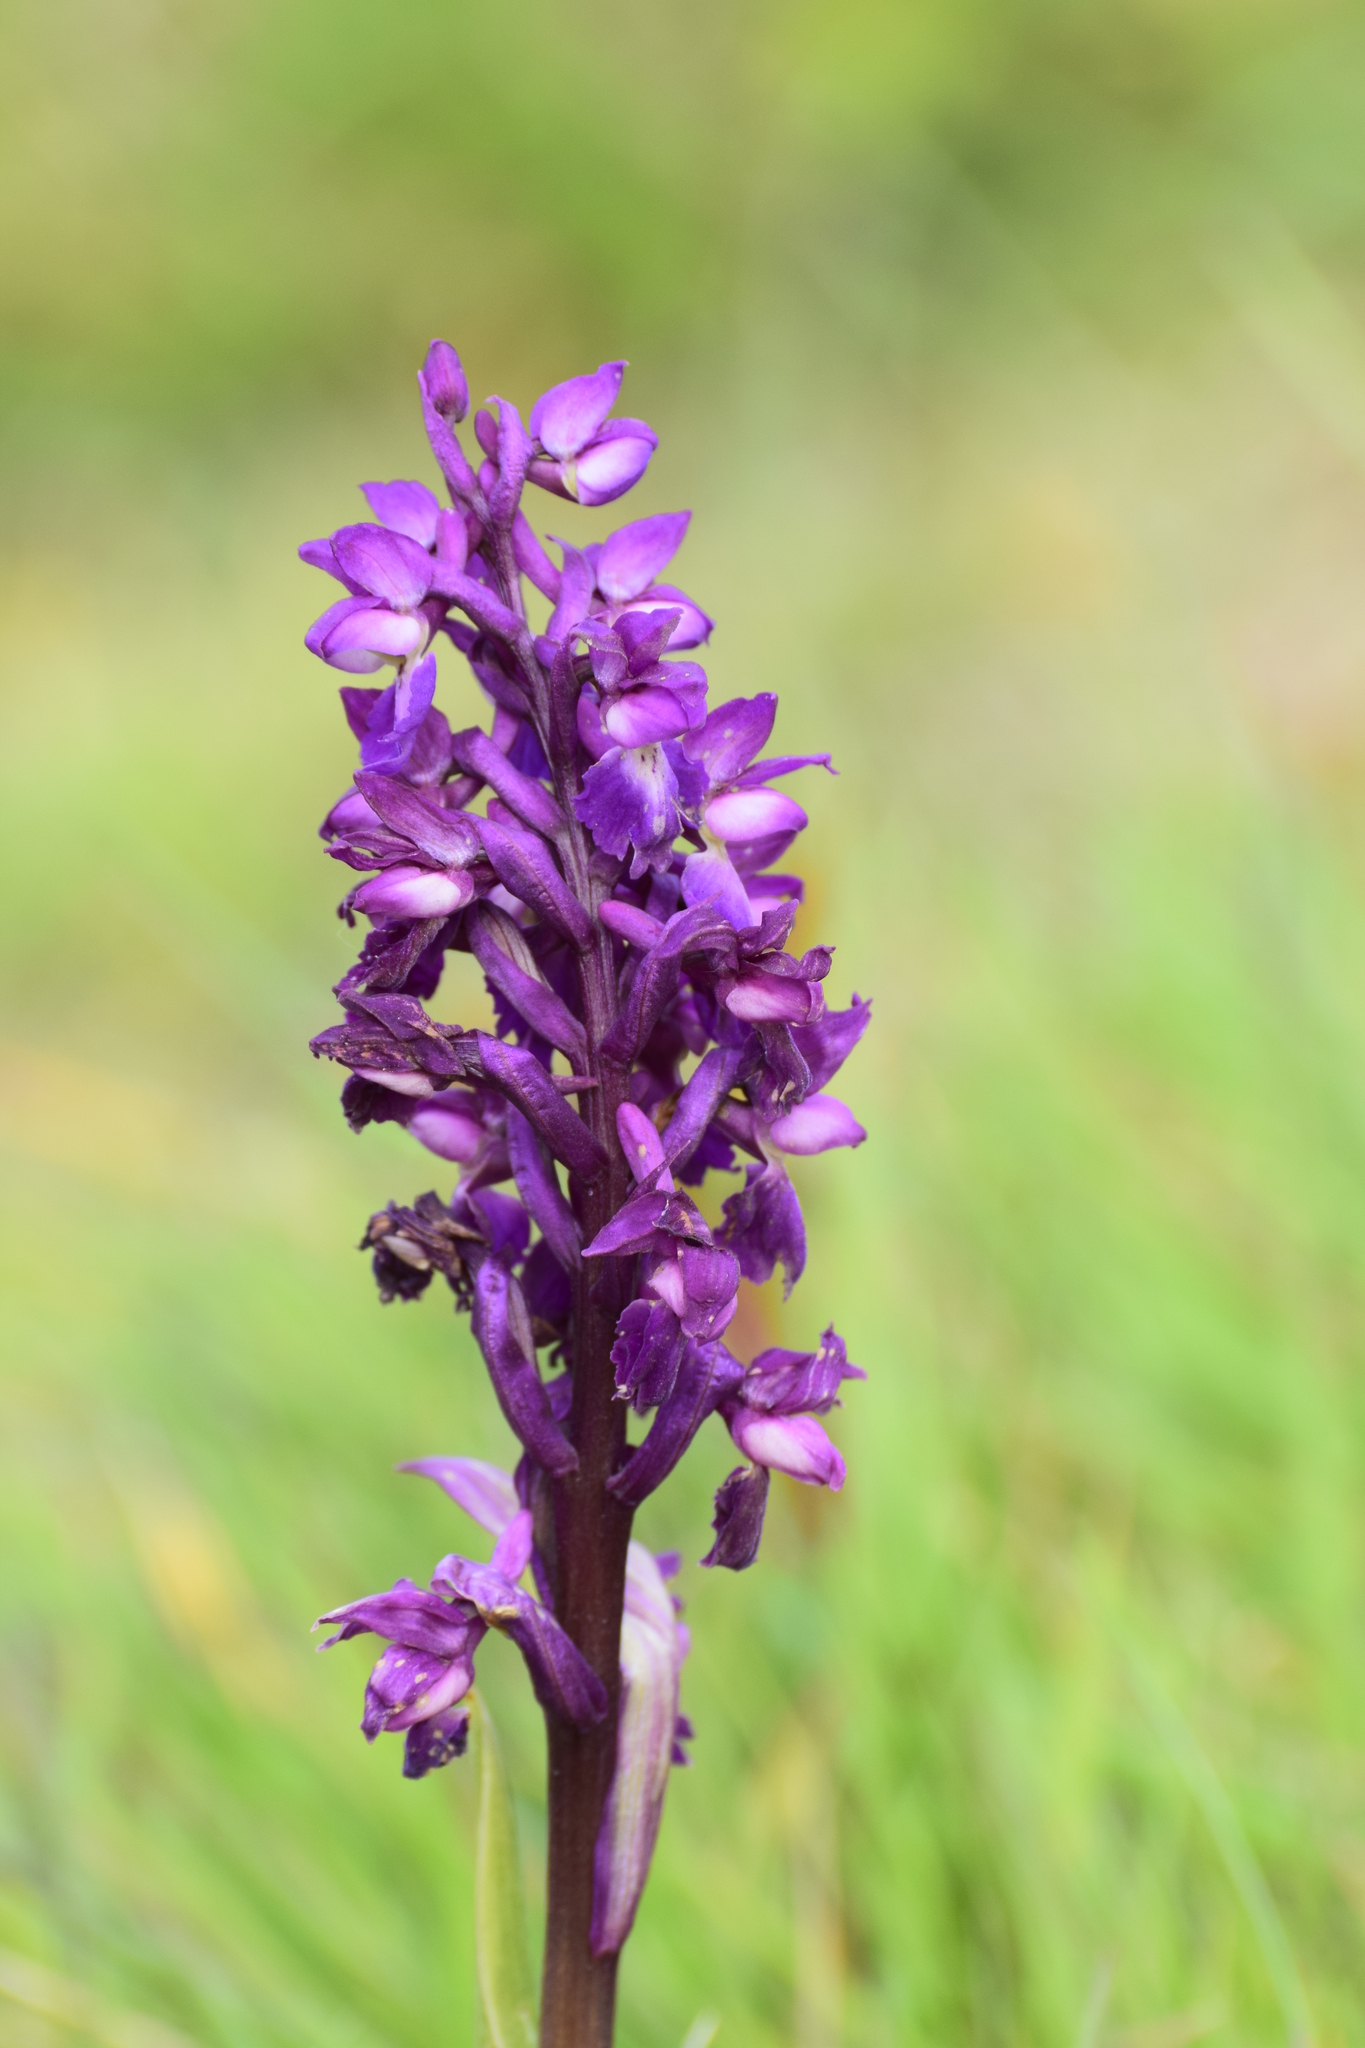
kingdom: Plantae
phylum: Tracheophyta
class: Liliopsida
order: Asparagales
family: Orchidaceae
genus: Orchis
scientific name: Orchis mascula
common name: Early-purple orchid
